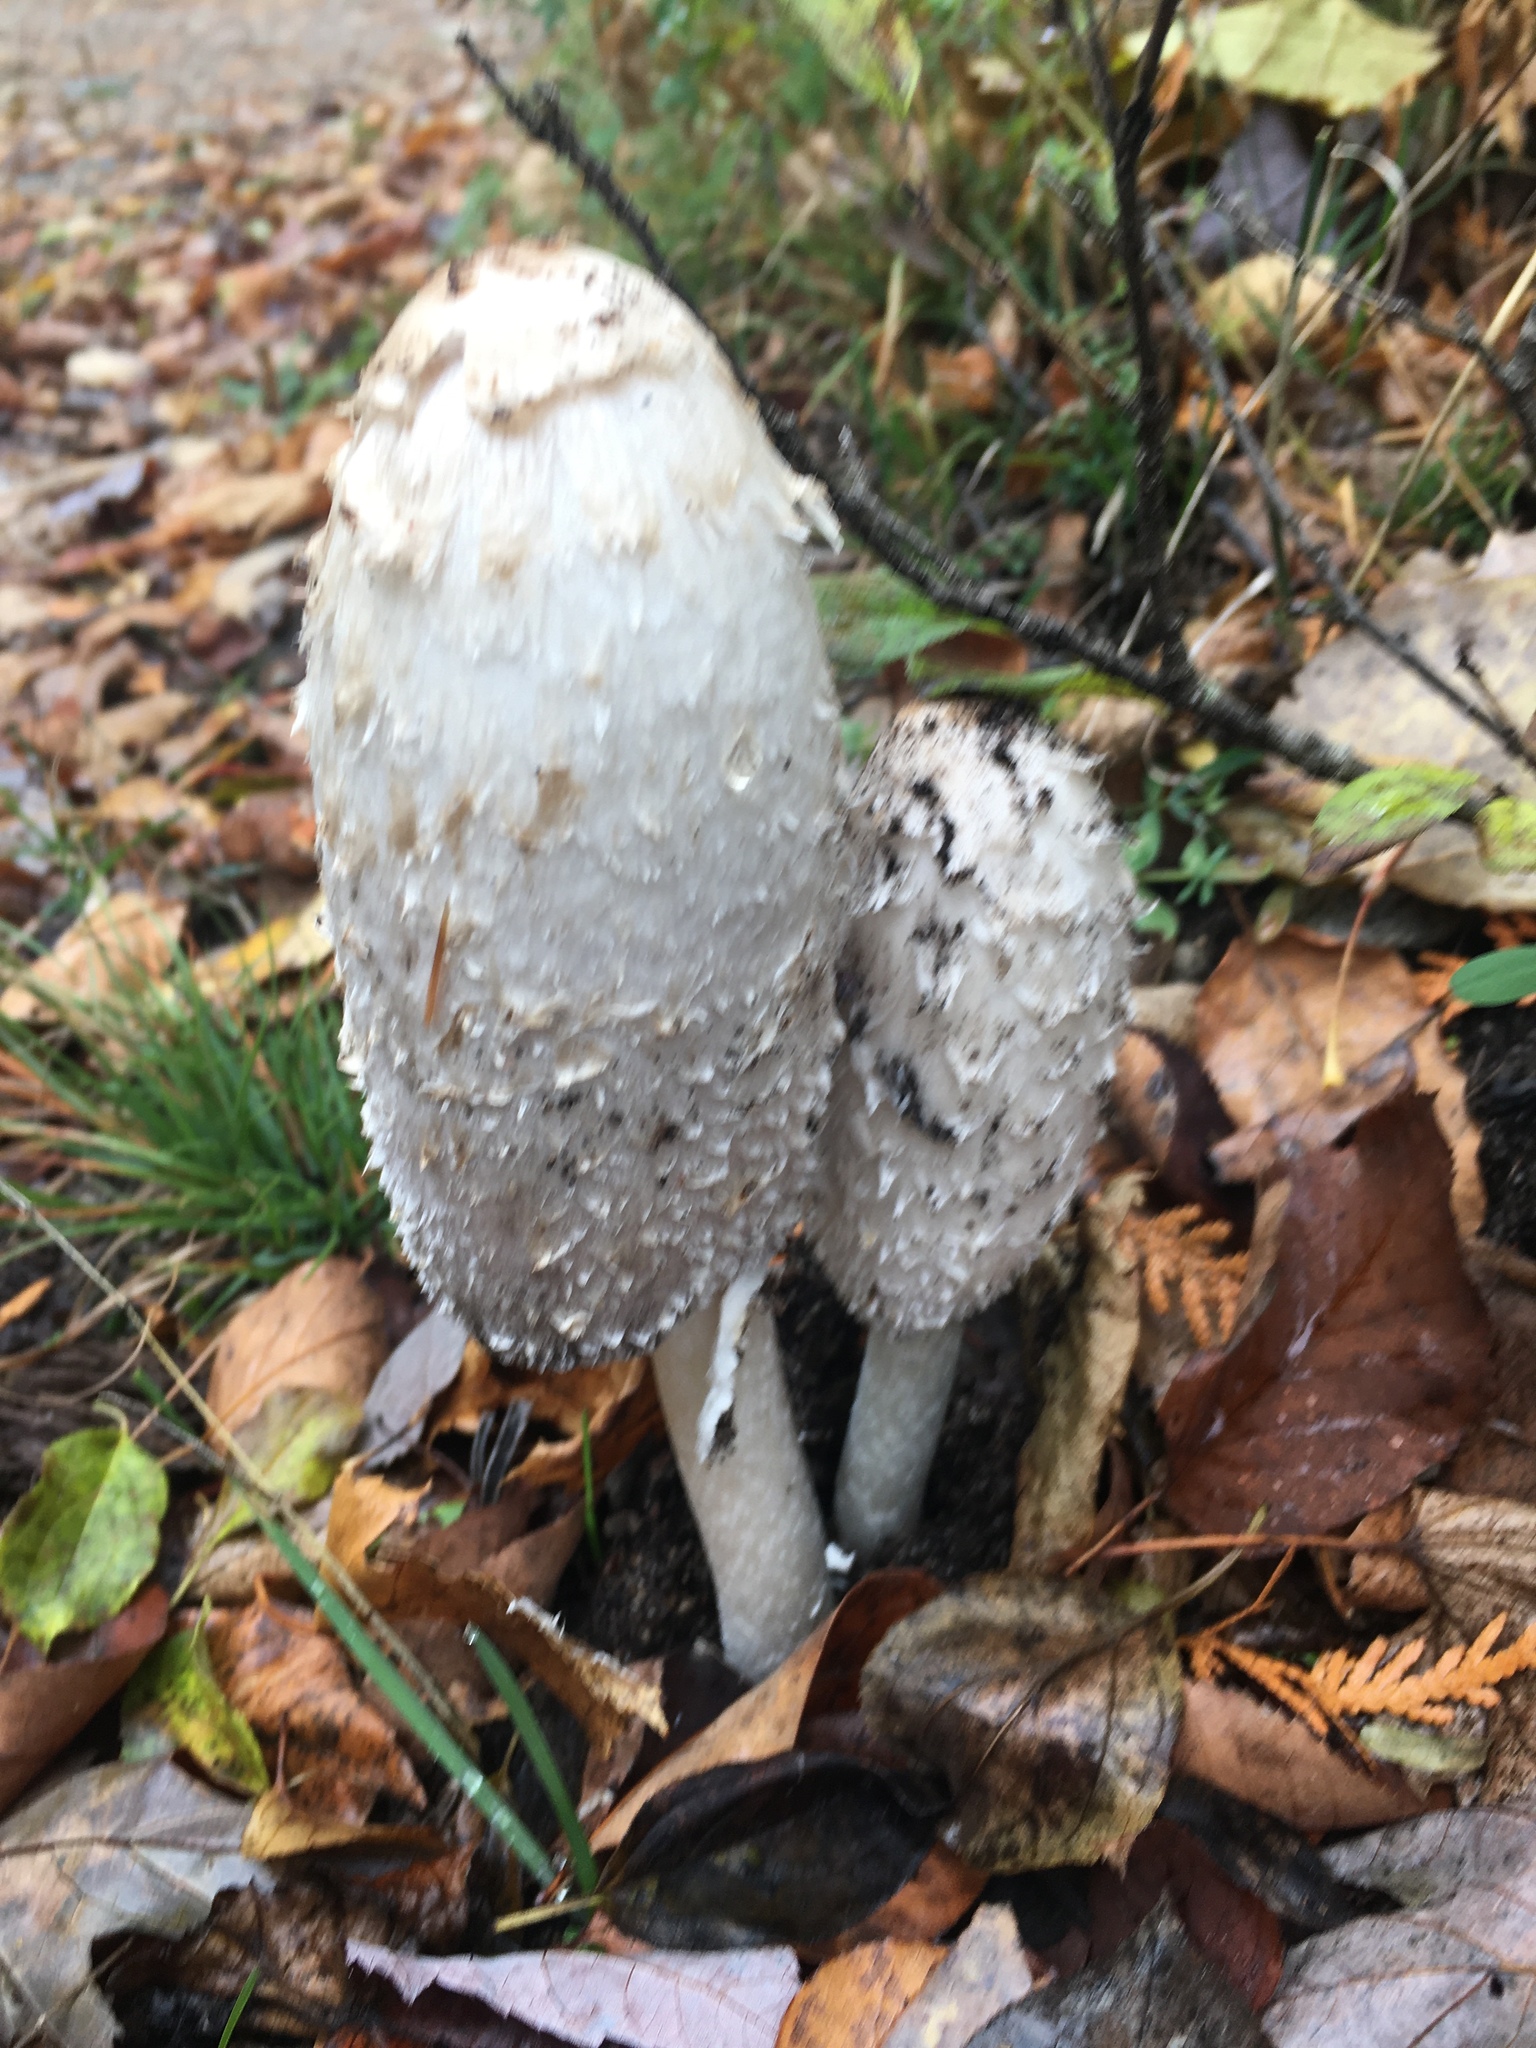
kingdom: Fungi
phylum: Basidiomycota
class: Agaricomycetes
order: Agaricales
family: Agaricaceae
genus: Coprinus
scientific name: Coprinus comatus
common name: Lawyer's wig
